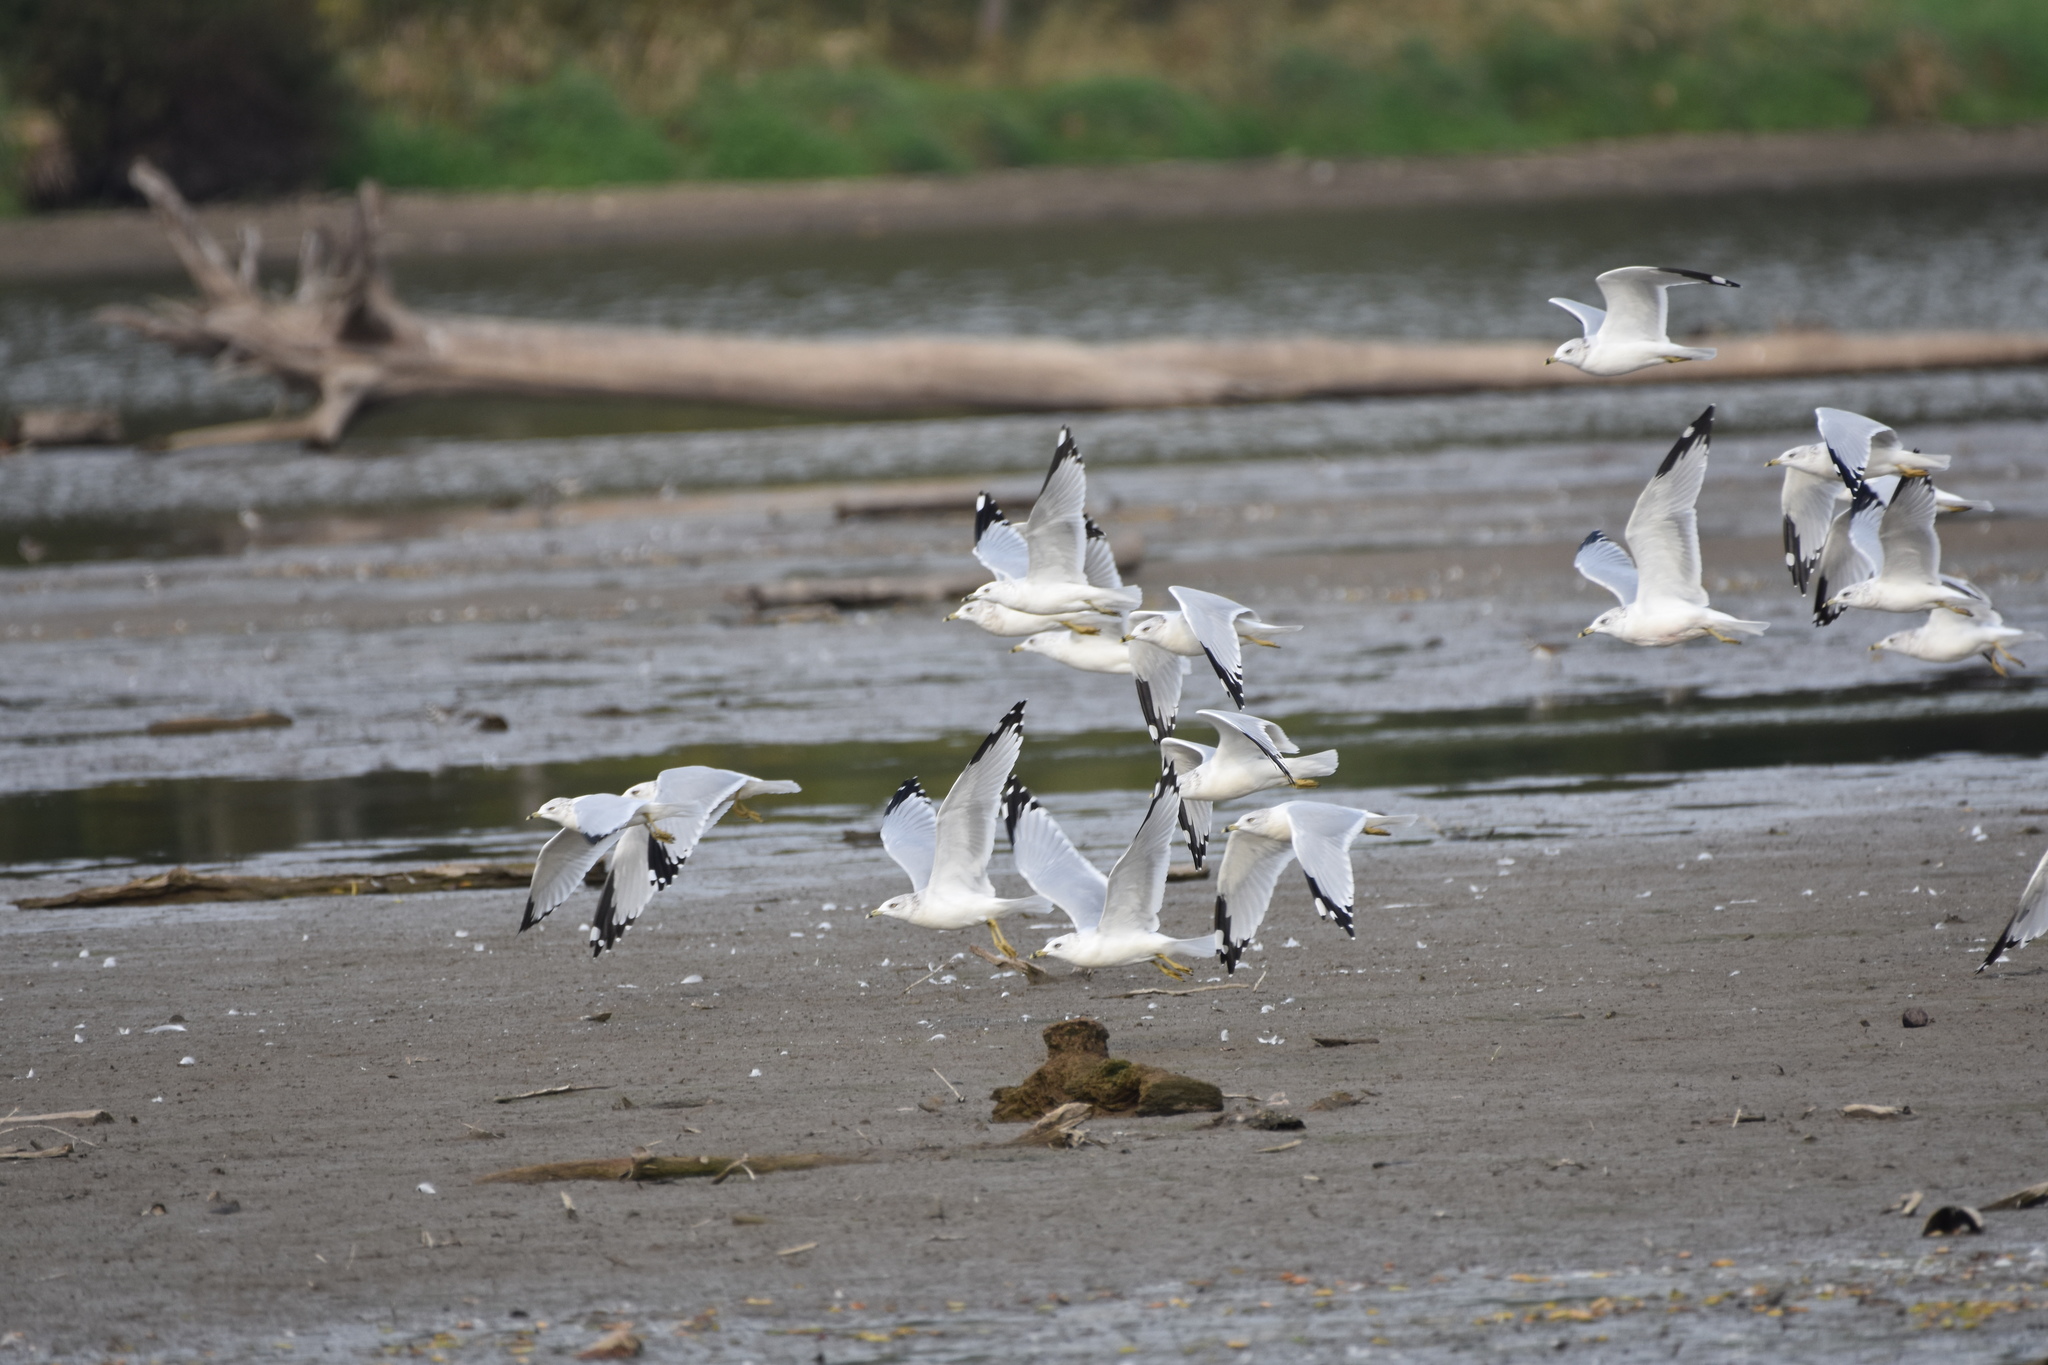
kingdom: Animalia
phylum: Chordata
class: Aves
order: Charadriiformes
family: Laridae
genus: Larus
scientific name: Larus delawarensis
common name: Ring-billed gull
